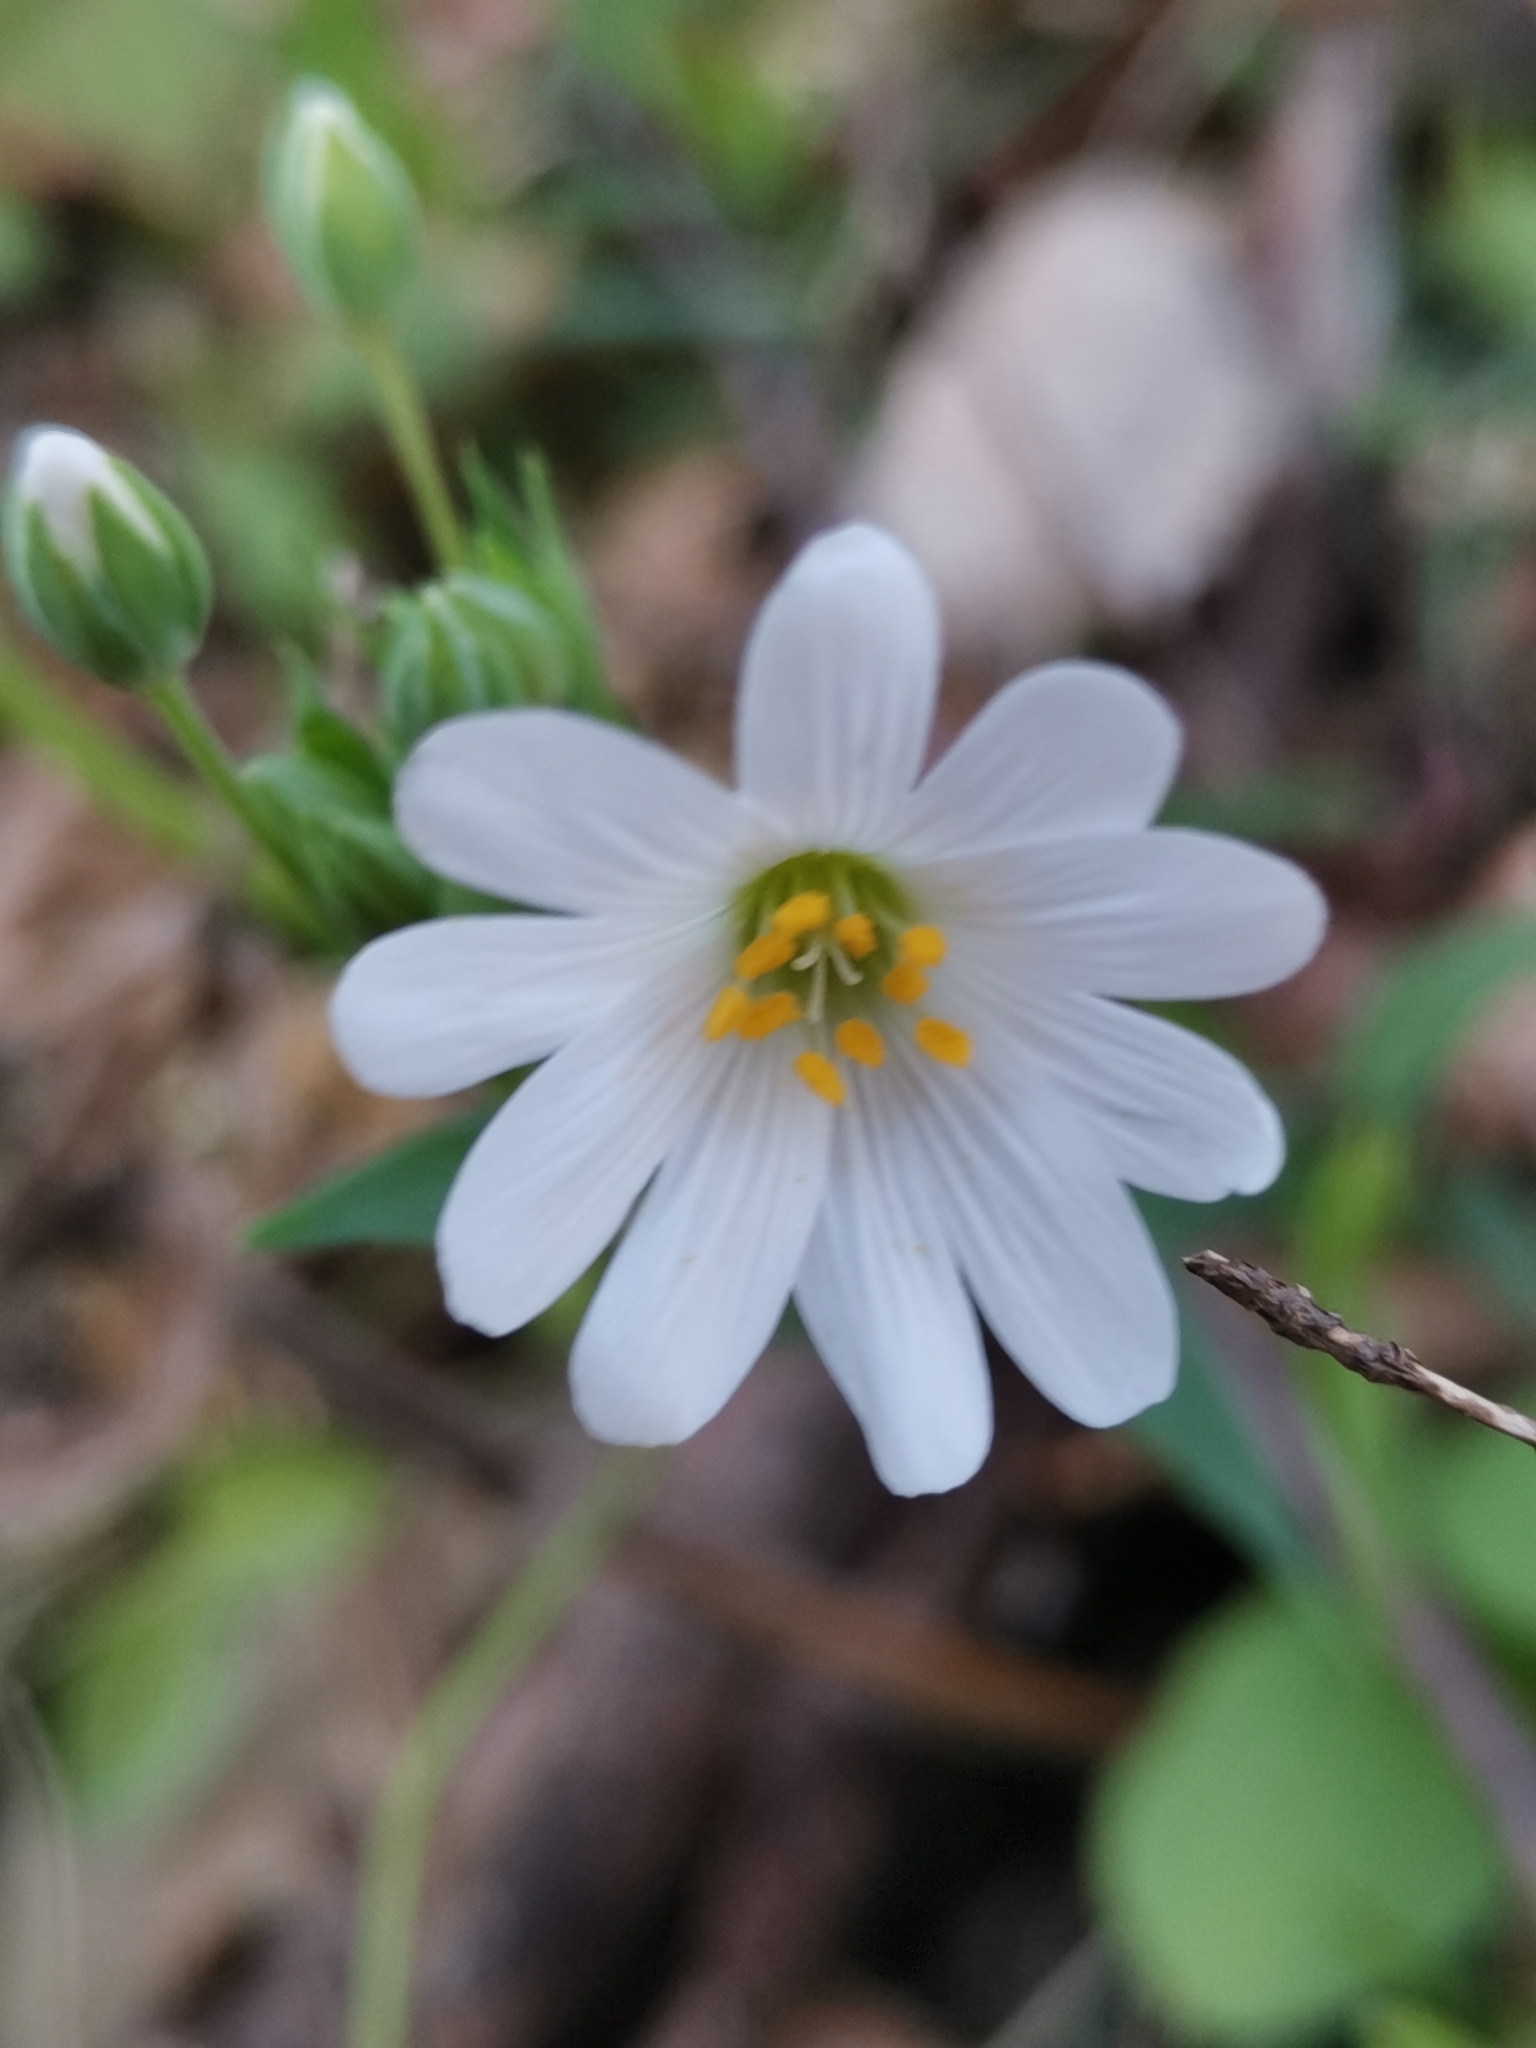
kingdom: Plantae
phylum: Tracheophyta
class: Magnoliopsida
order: Caryophyllales
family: Caryophyllaceae
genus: Rabelera
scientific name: Rabelera holostea
